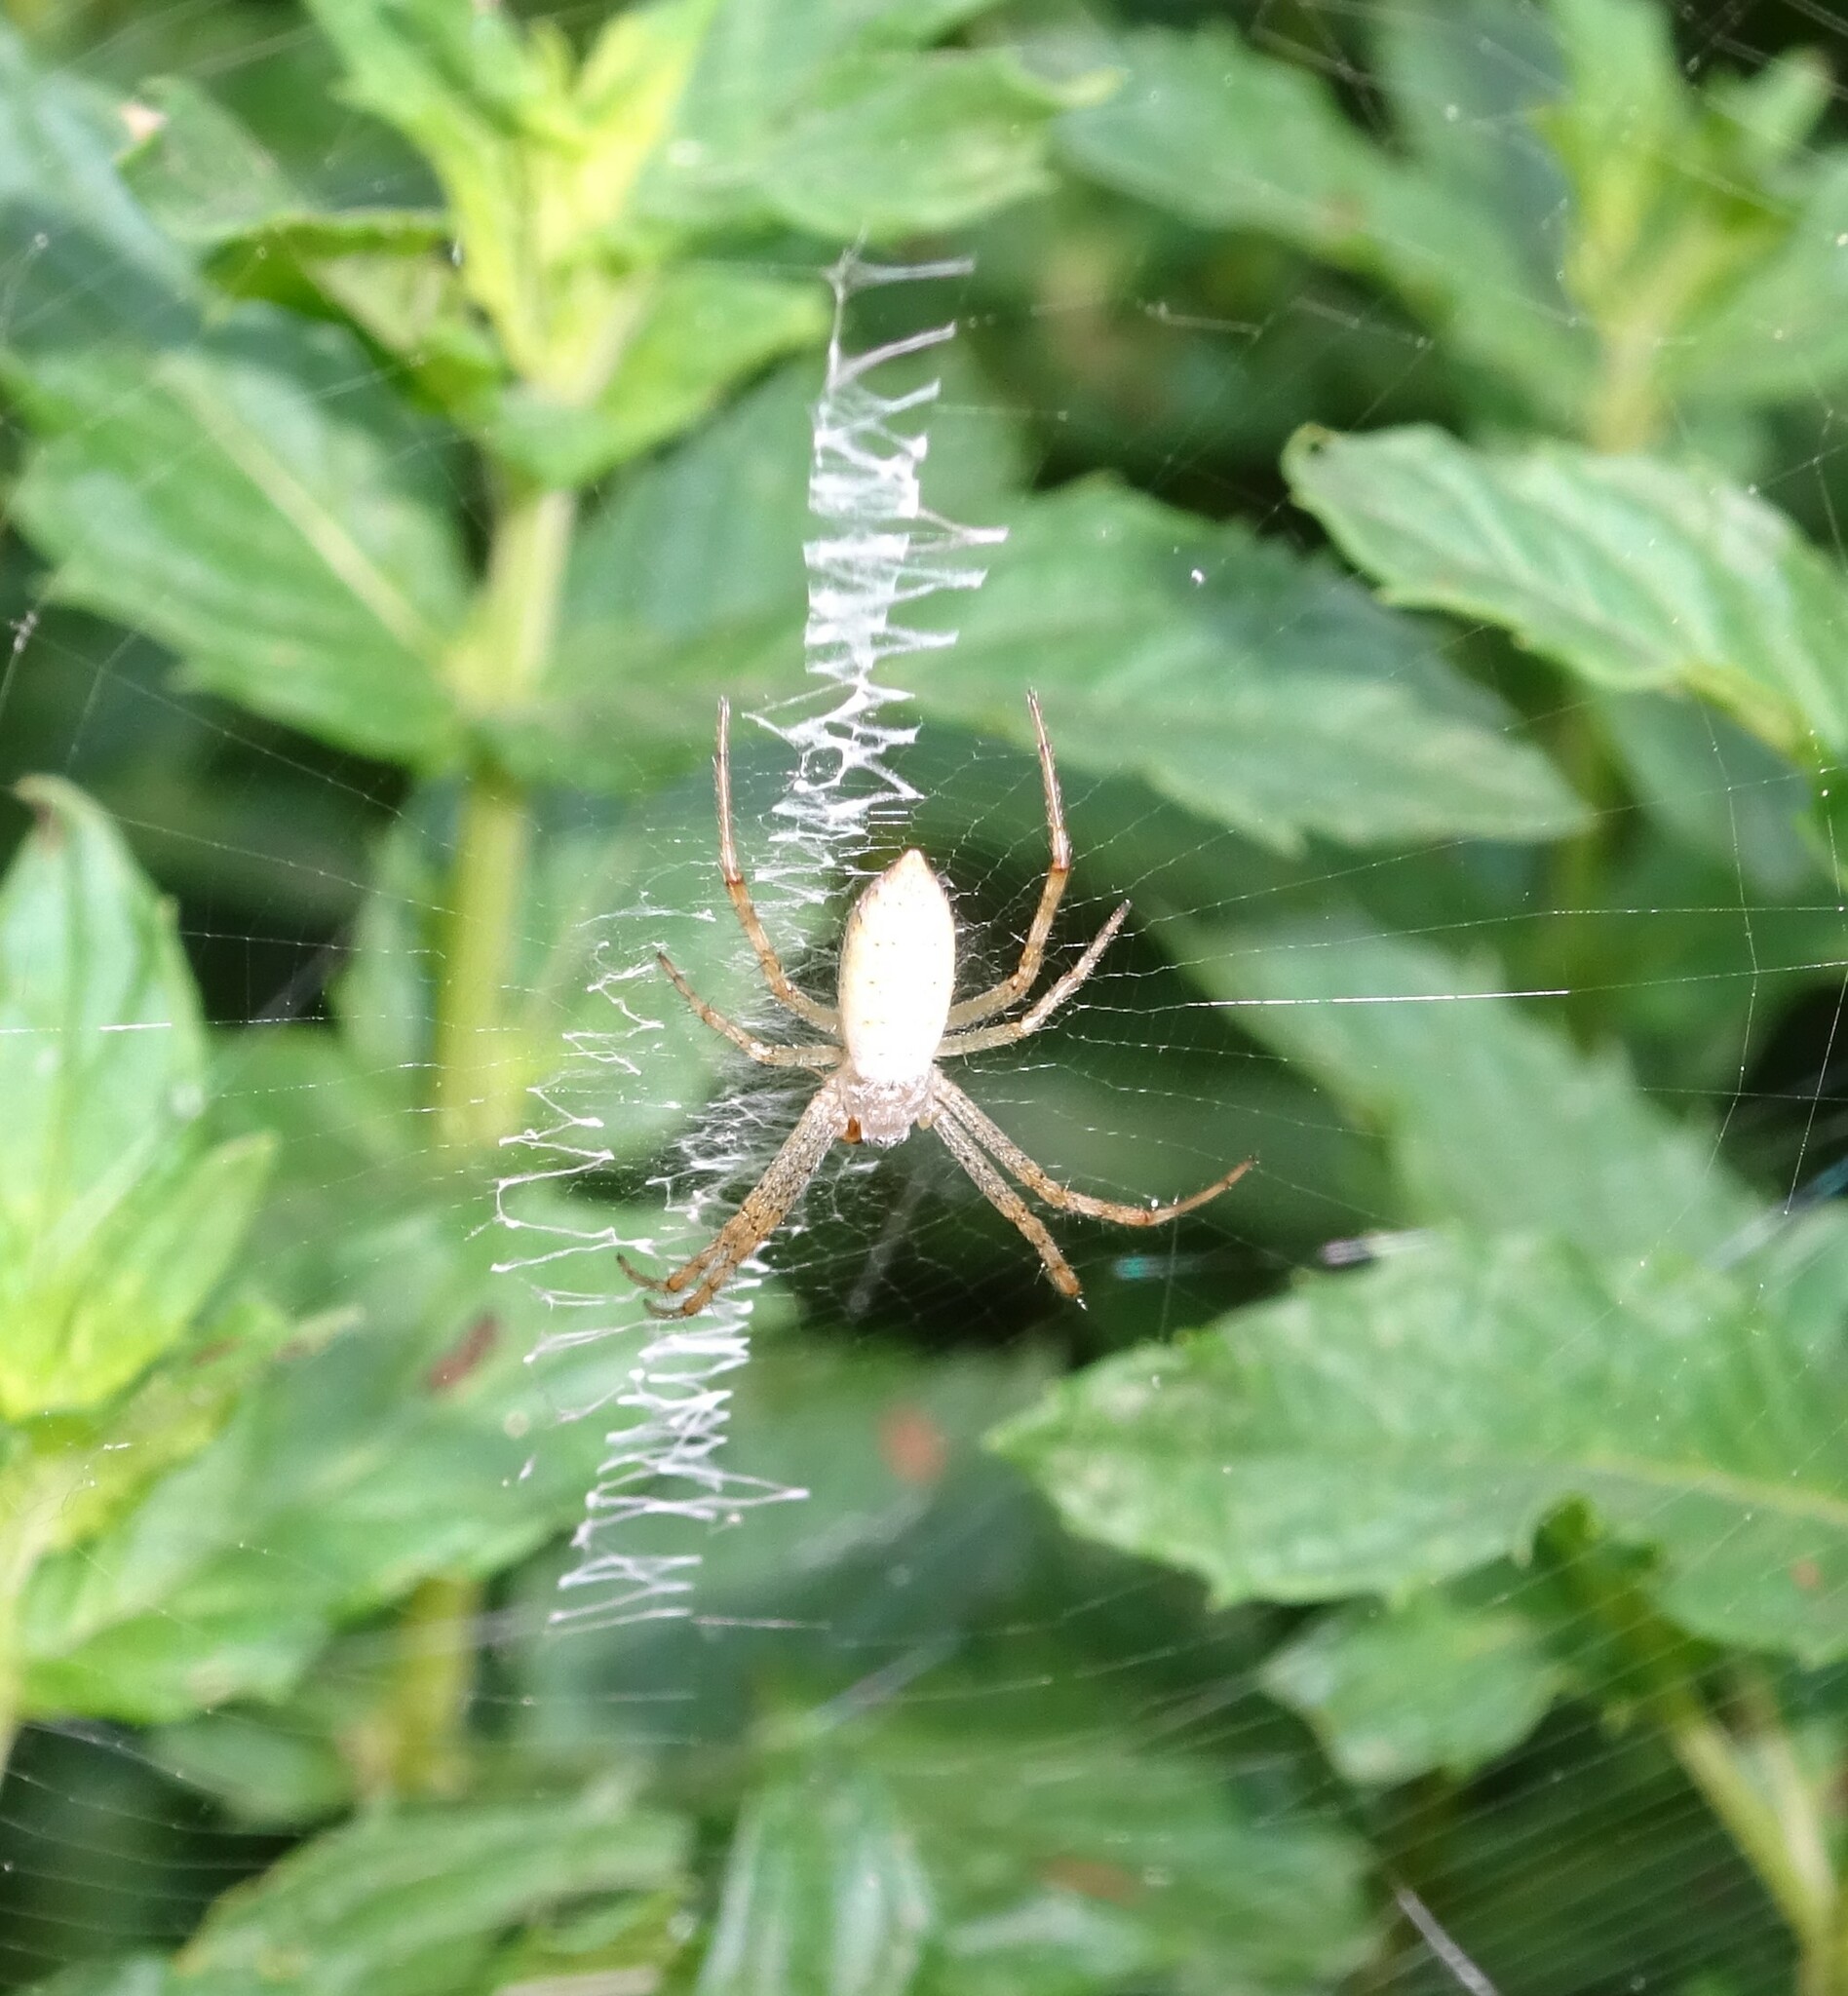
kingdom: Animalia
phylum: Arthropoda
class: Arachnida
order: Araneae
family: Araneidae
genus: Argiope
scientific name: Argiope bruennichi
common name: Wasp spider
